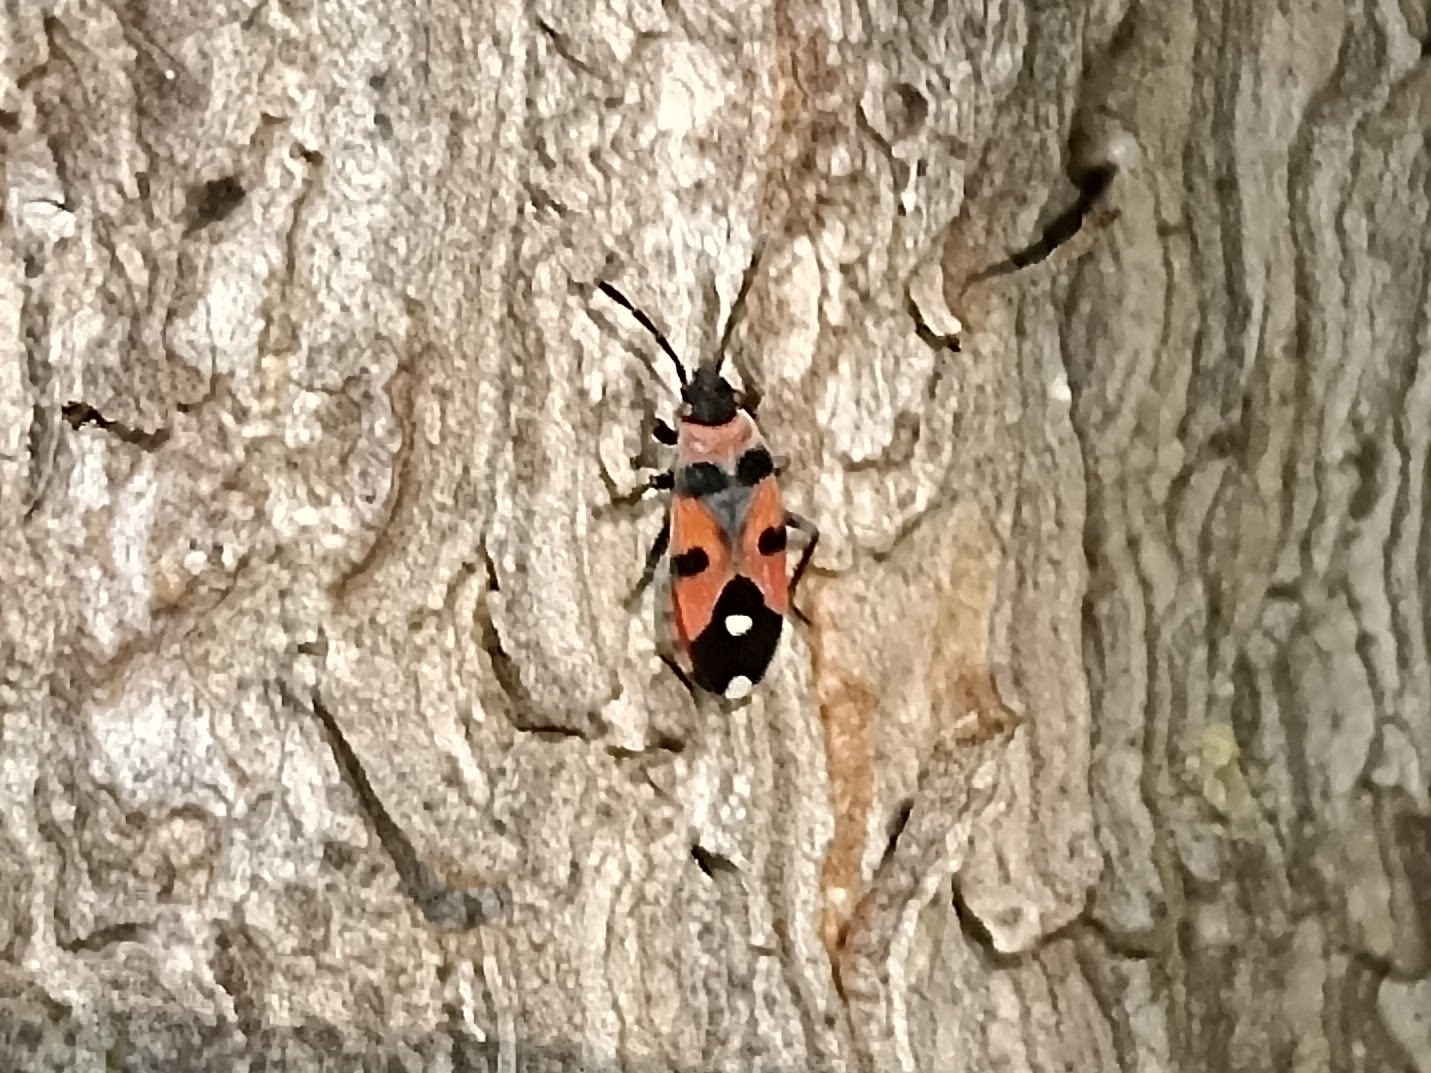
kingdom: Animalia
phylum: Arthropoda
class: Insecta
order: Hemiptera
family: Lygaeidae
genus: Horvathiolus
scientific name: Horvathiolus superbus
